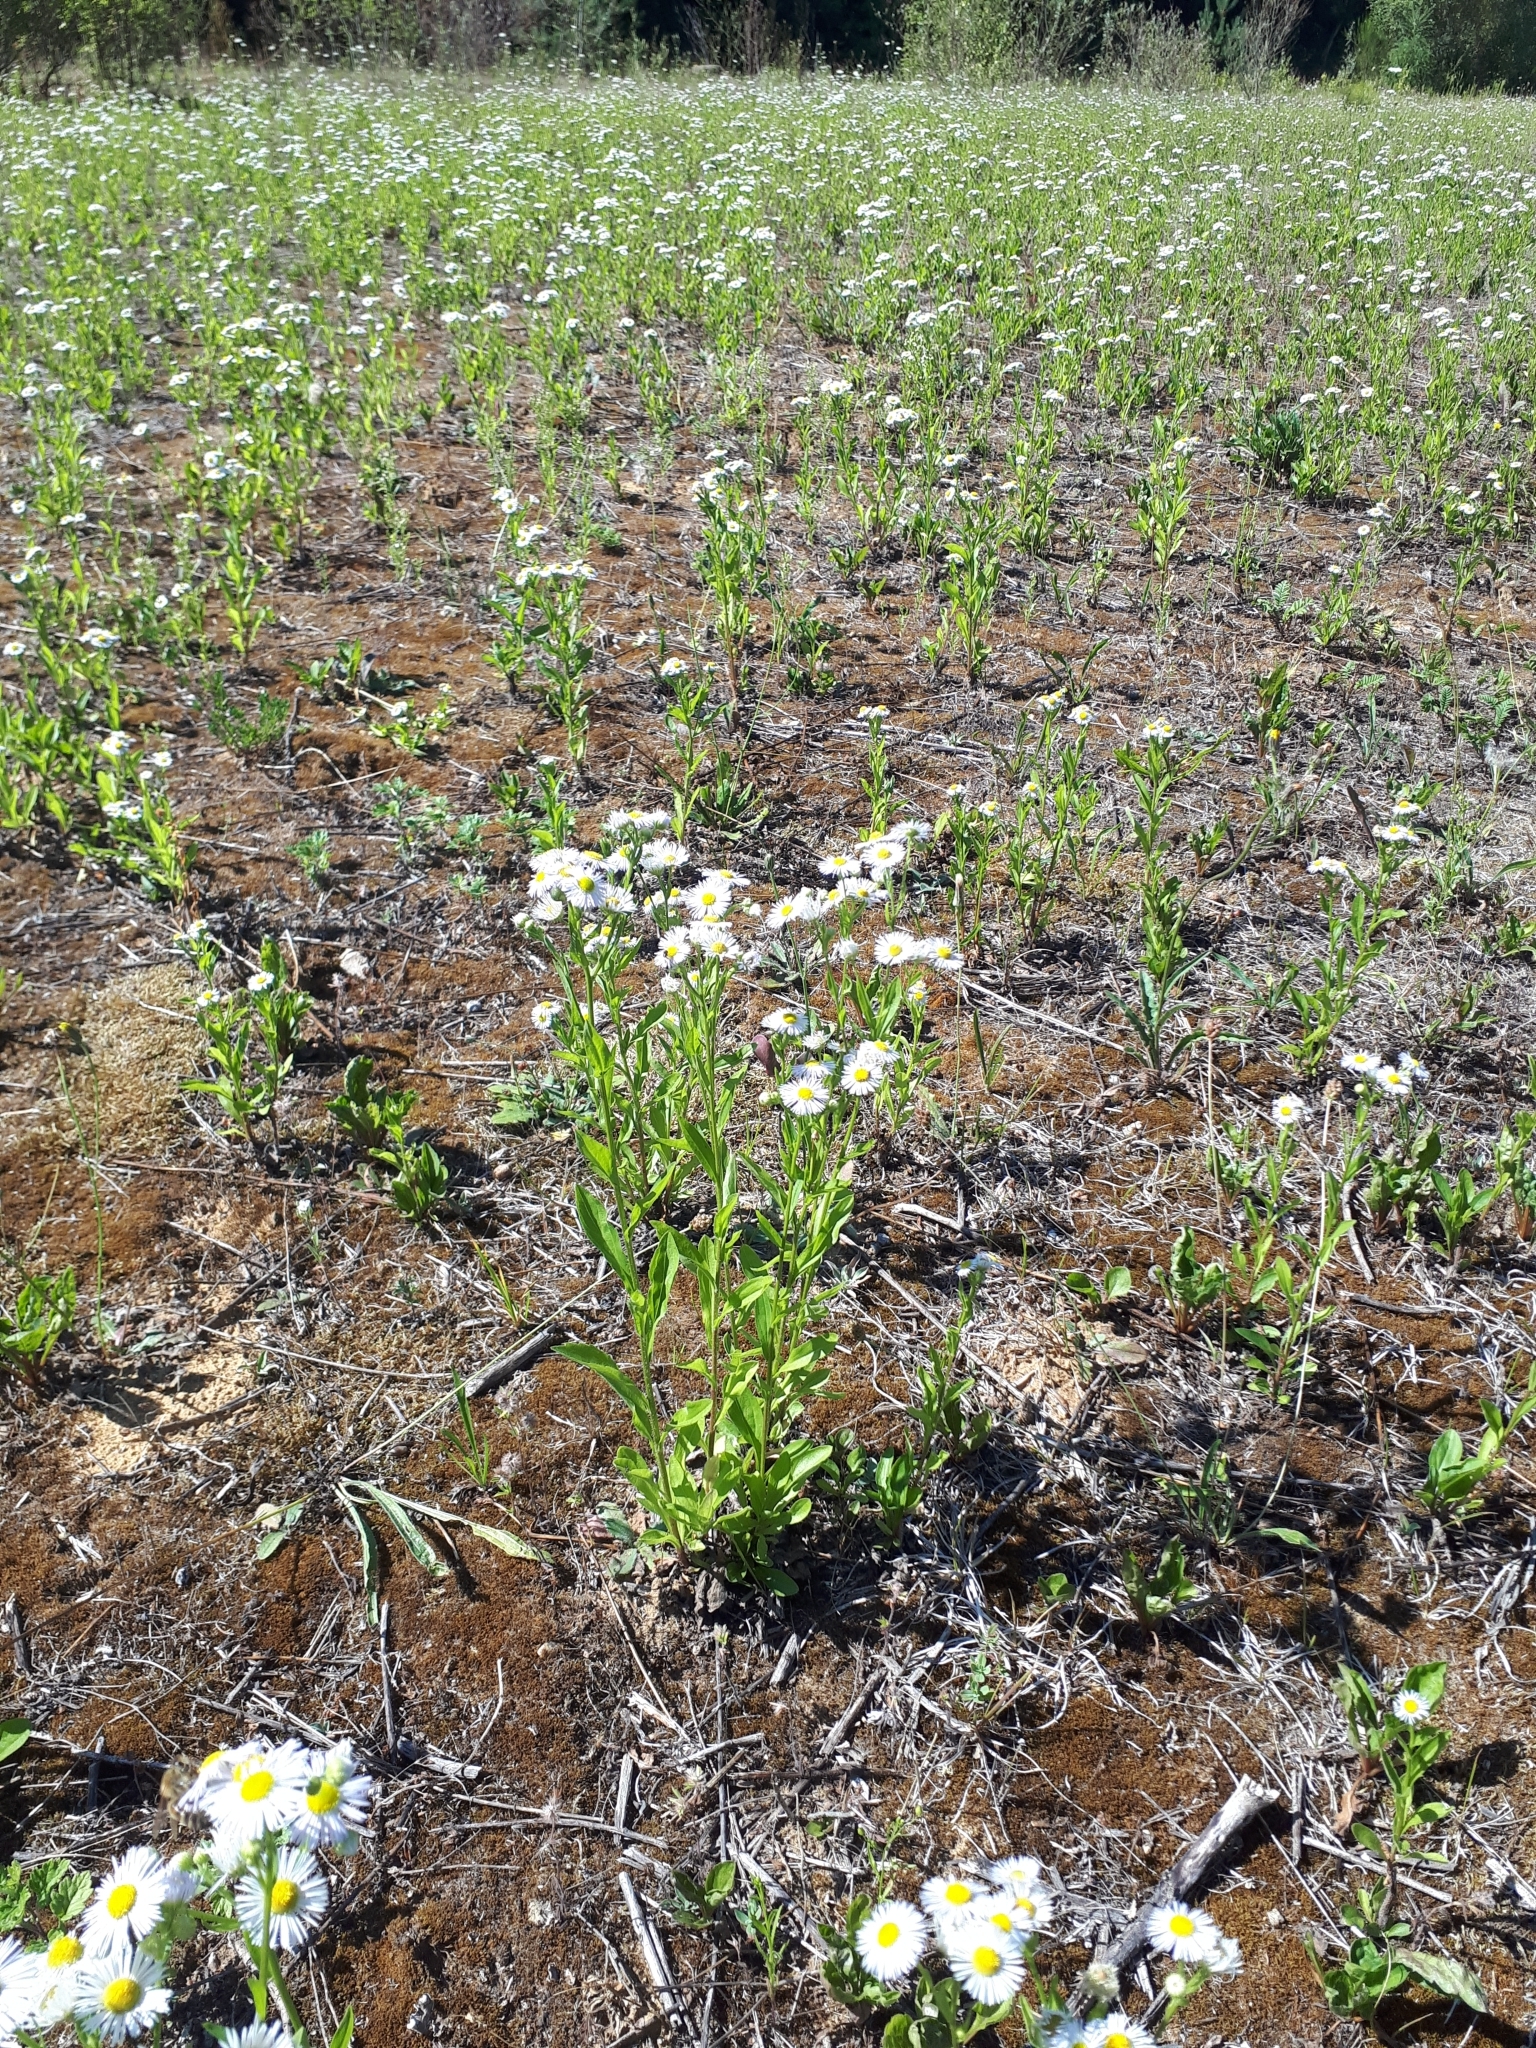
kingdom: Plantae
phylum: Tracheophyta
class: Magnoliopsida
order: Asterales
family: Asteraceae
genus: Erigeron
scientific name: Erigeron annuus
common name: Tall fleabane
